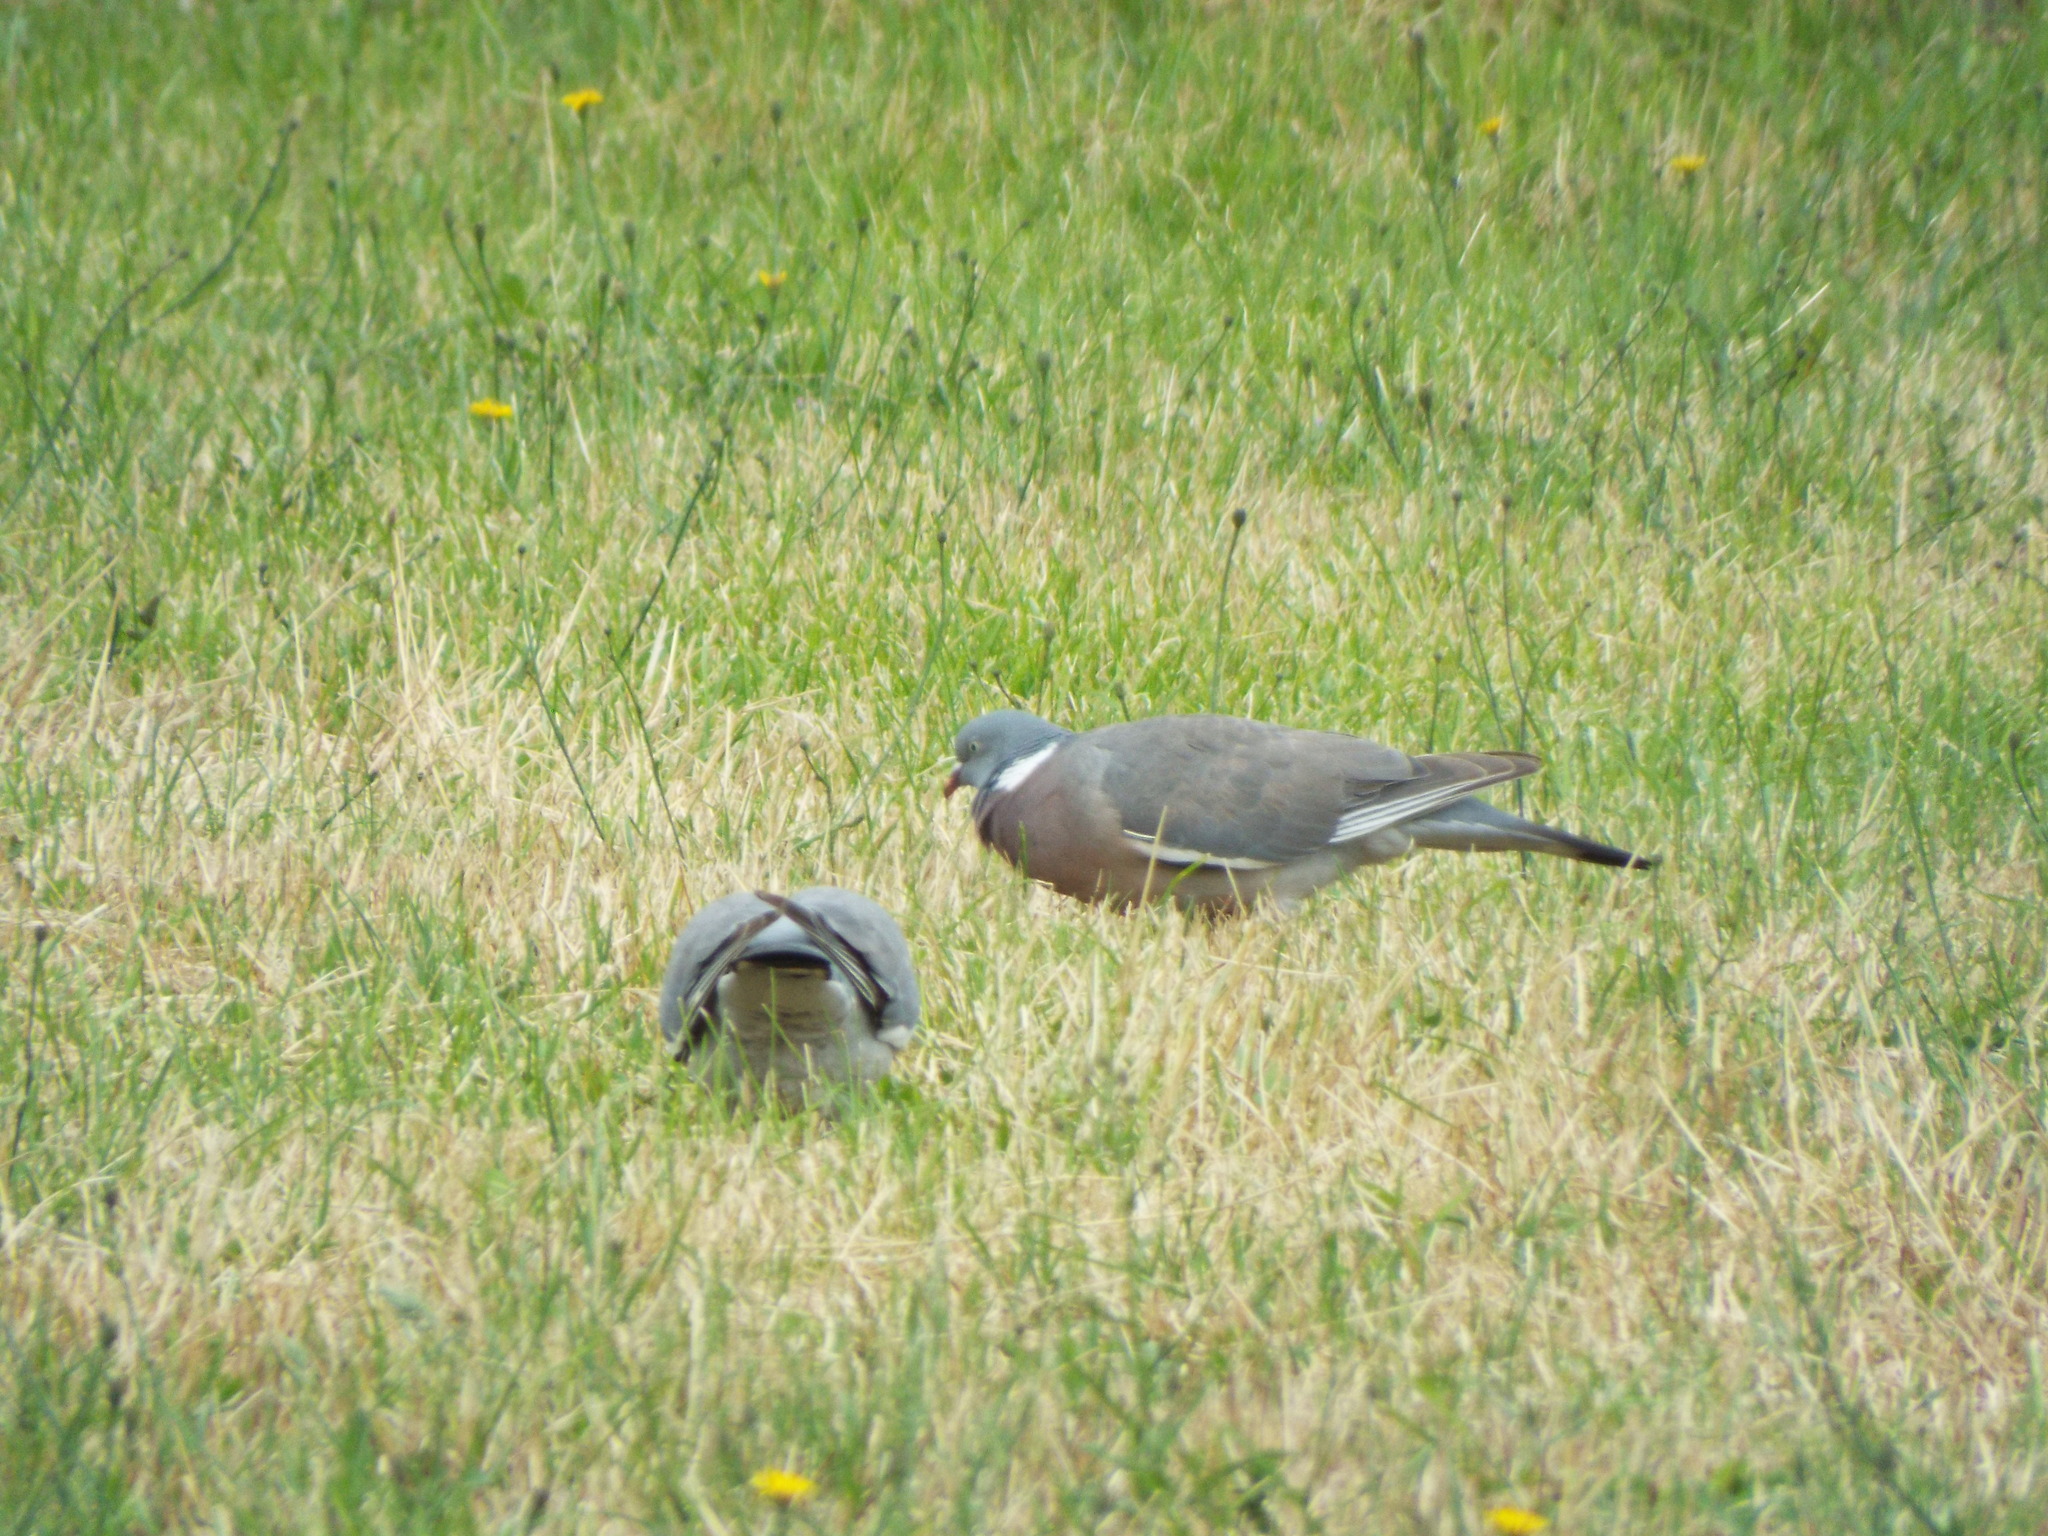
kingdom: Animalia
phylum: Chordata
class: Aves
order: Columbiformes
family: Columbidae
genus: Columba
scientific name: Columba palumbus
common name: Common wood pigeon
